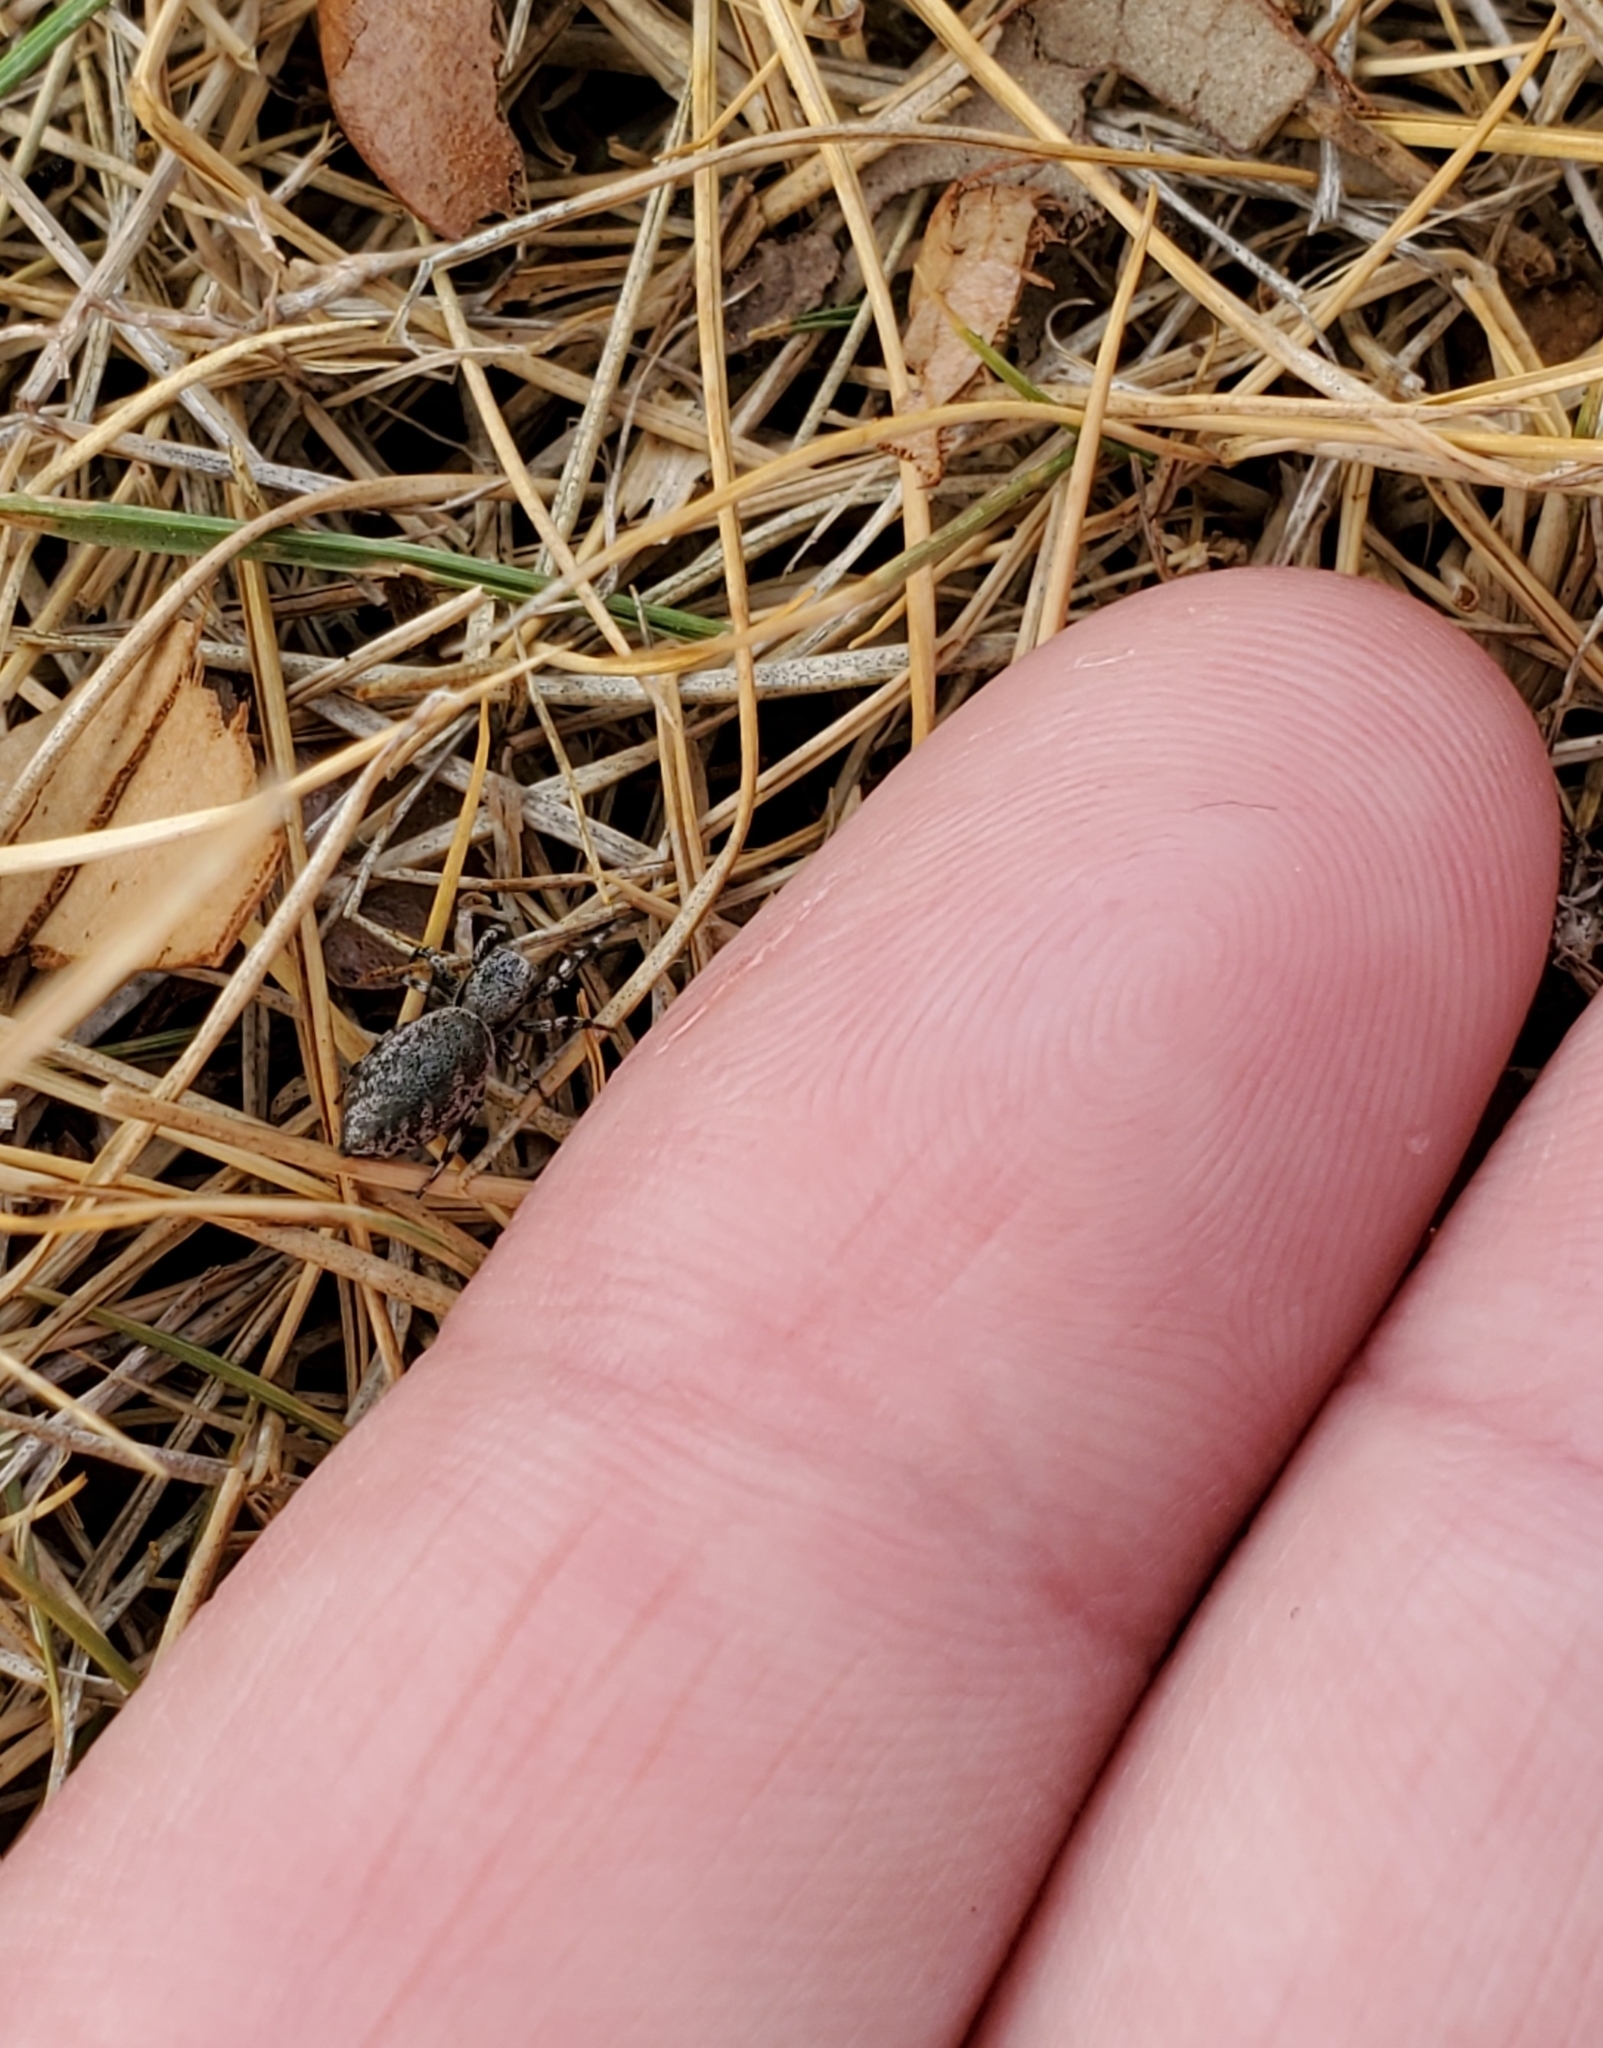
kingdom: Animalia
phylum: Arthropoda
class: Arachnida
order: Araneae
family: Salticidae
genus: Tutelina
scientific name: Tutelina harti
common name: Hart's jumping spider
